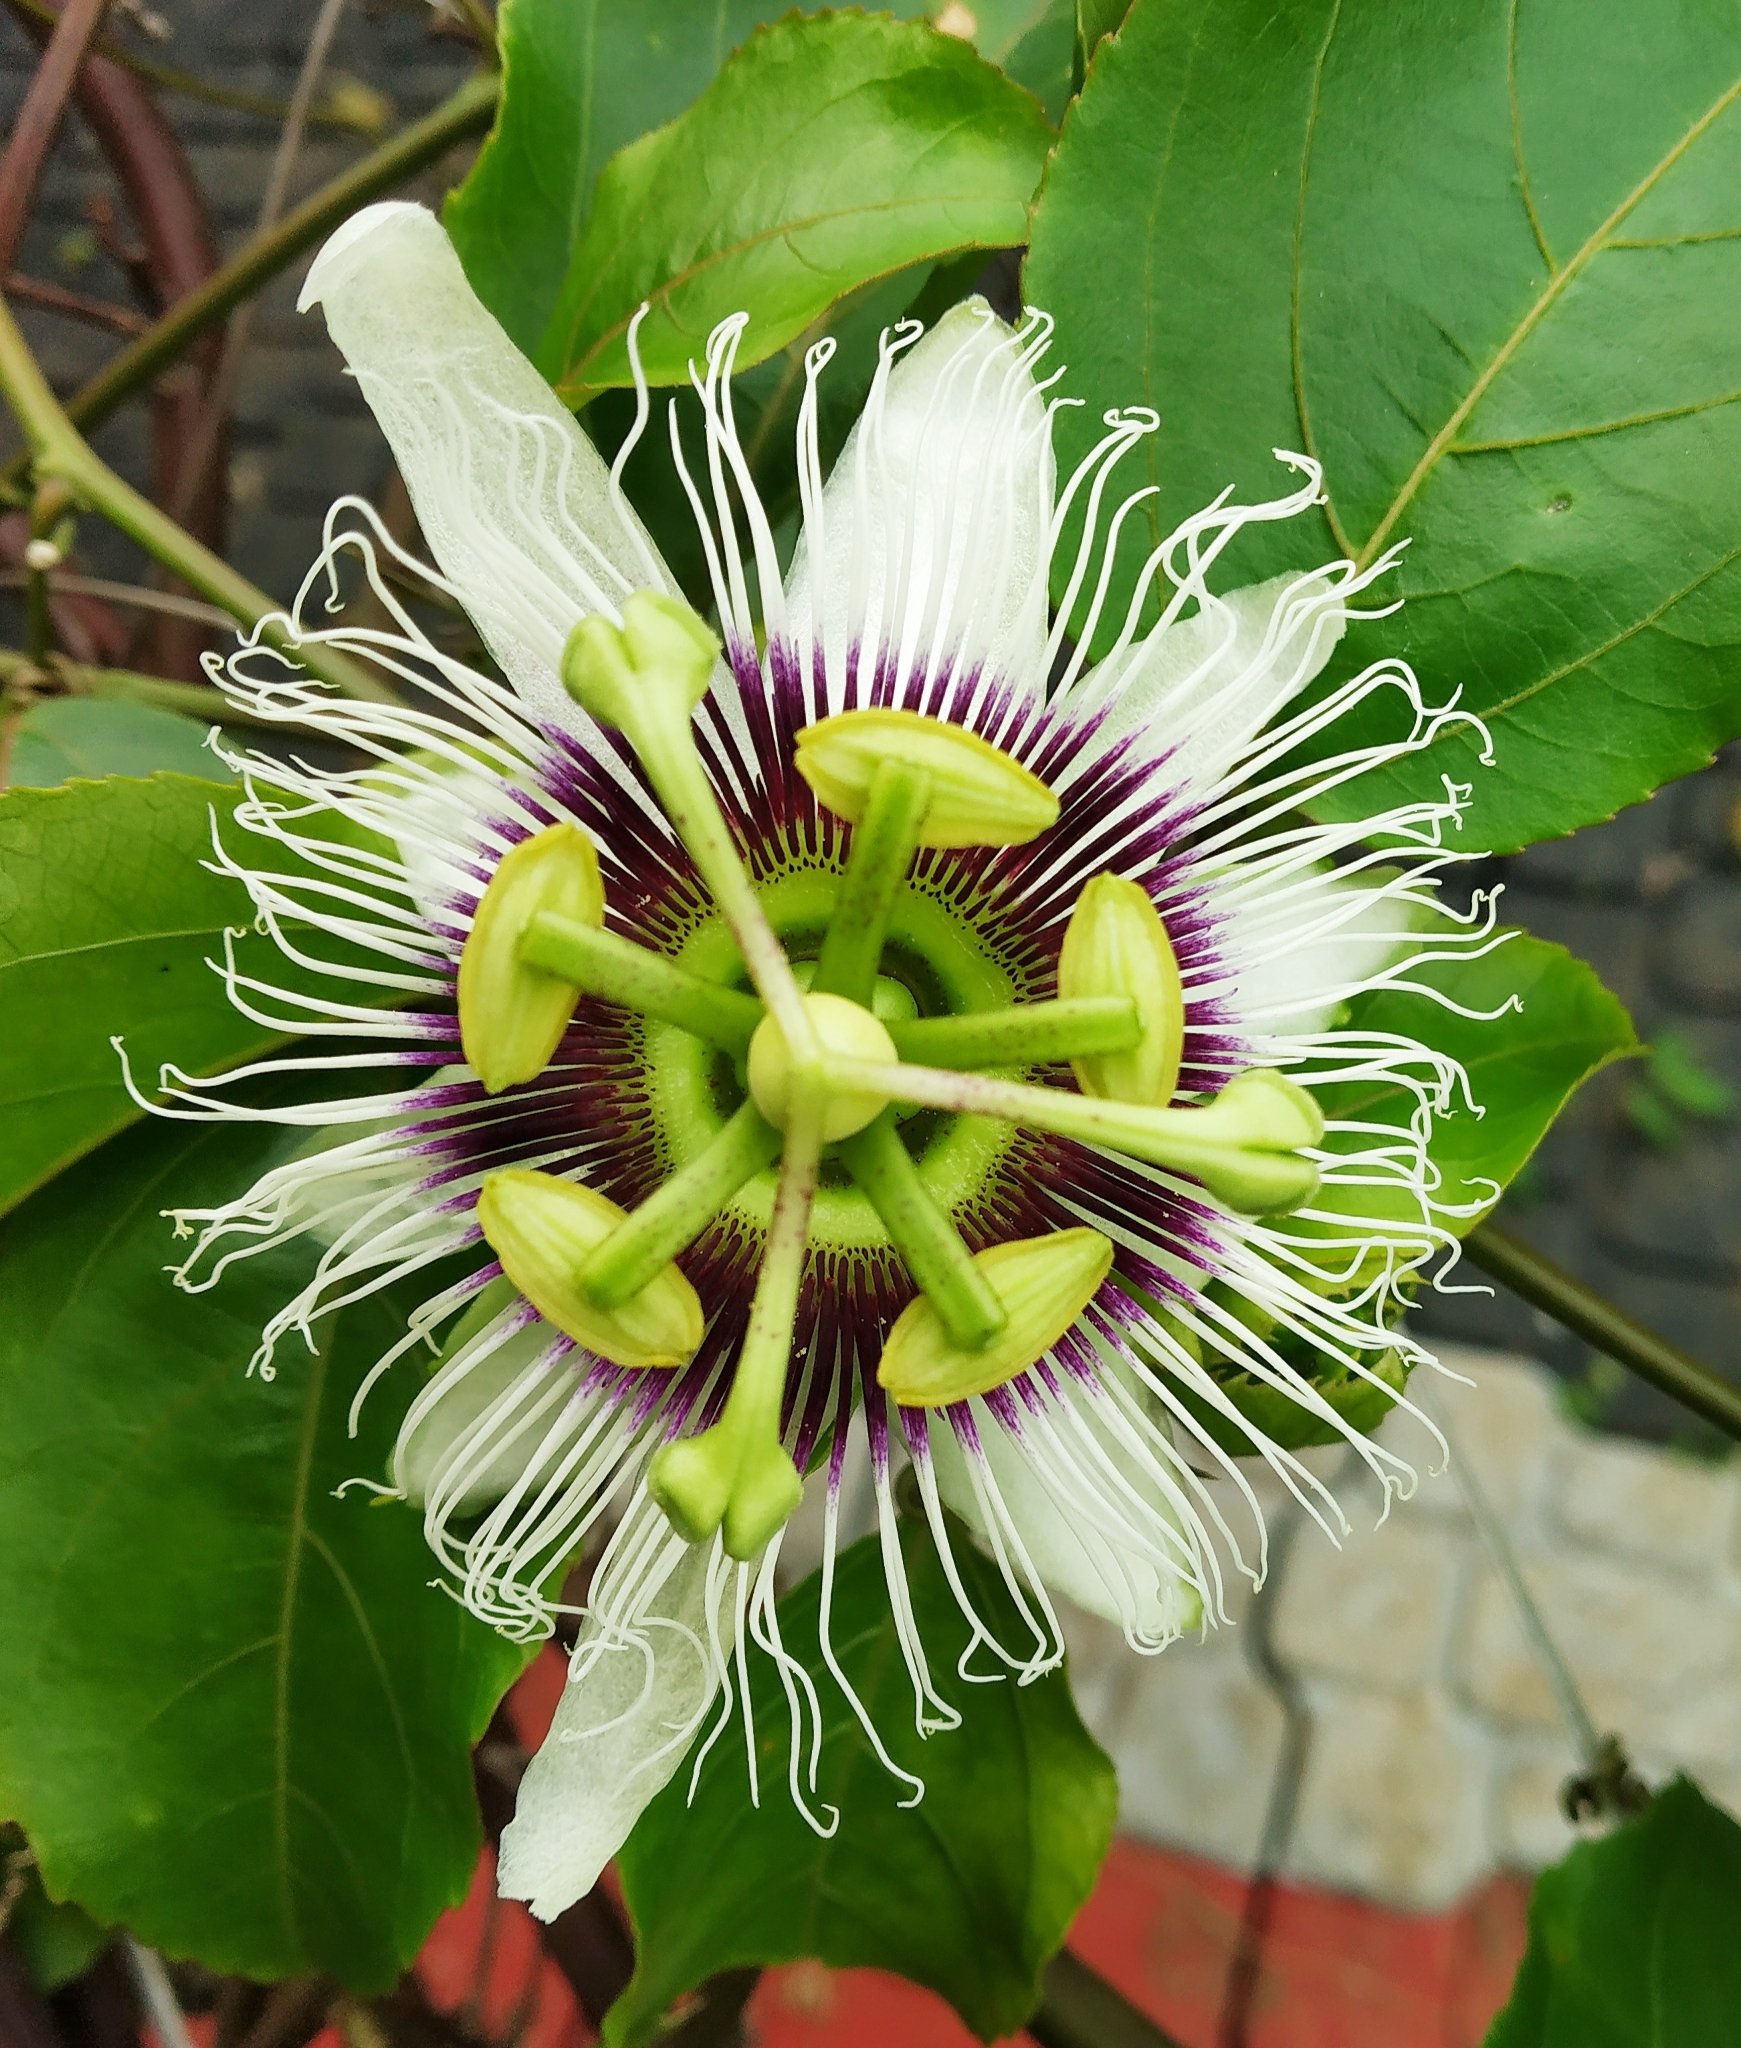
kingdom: Plantae
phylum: Tracheophyta
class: Magnoliopsida
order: Malpighiales
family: Passifloraceae
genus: Passiflora
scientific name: Passiflora edulis
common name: Purple granadilla
